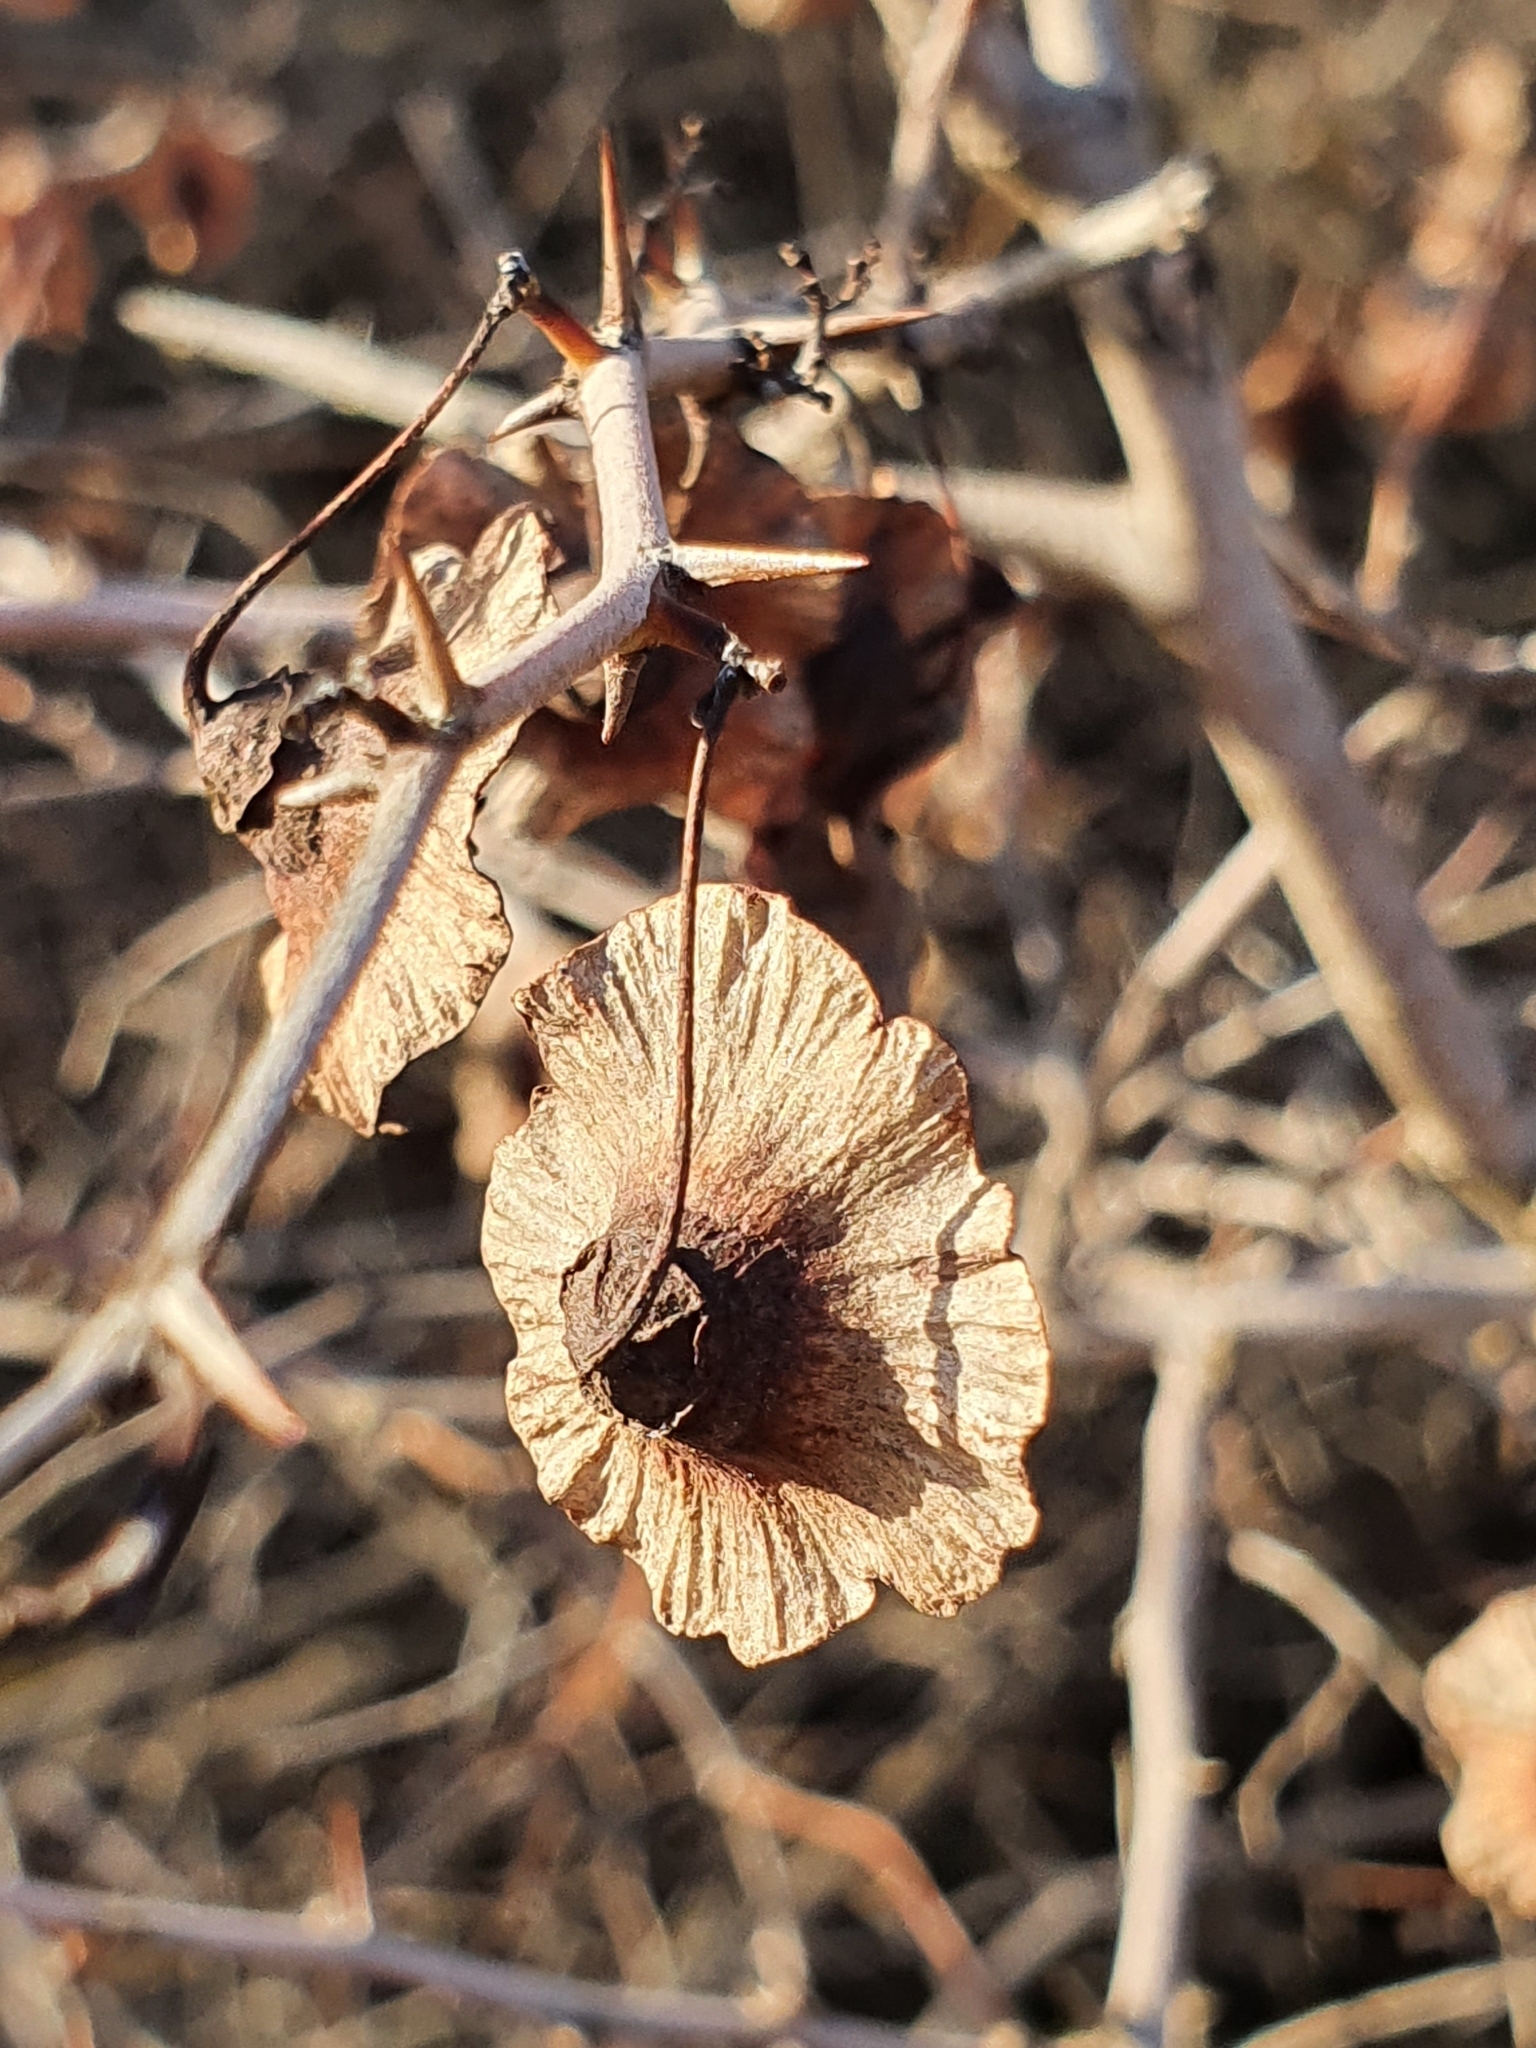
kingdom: Plantae
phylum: Tracheophyta
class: Magnoliopsida
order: Rosales
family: Rhamnaceae
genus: Paliurus
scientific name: Paliurus spina-christi
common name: Jeruselem thorn
